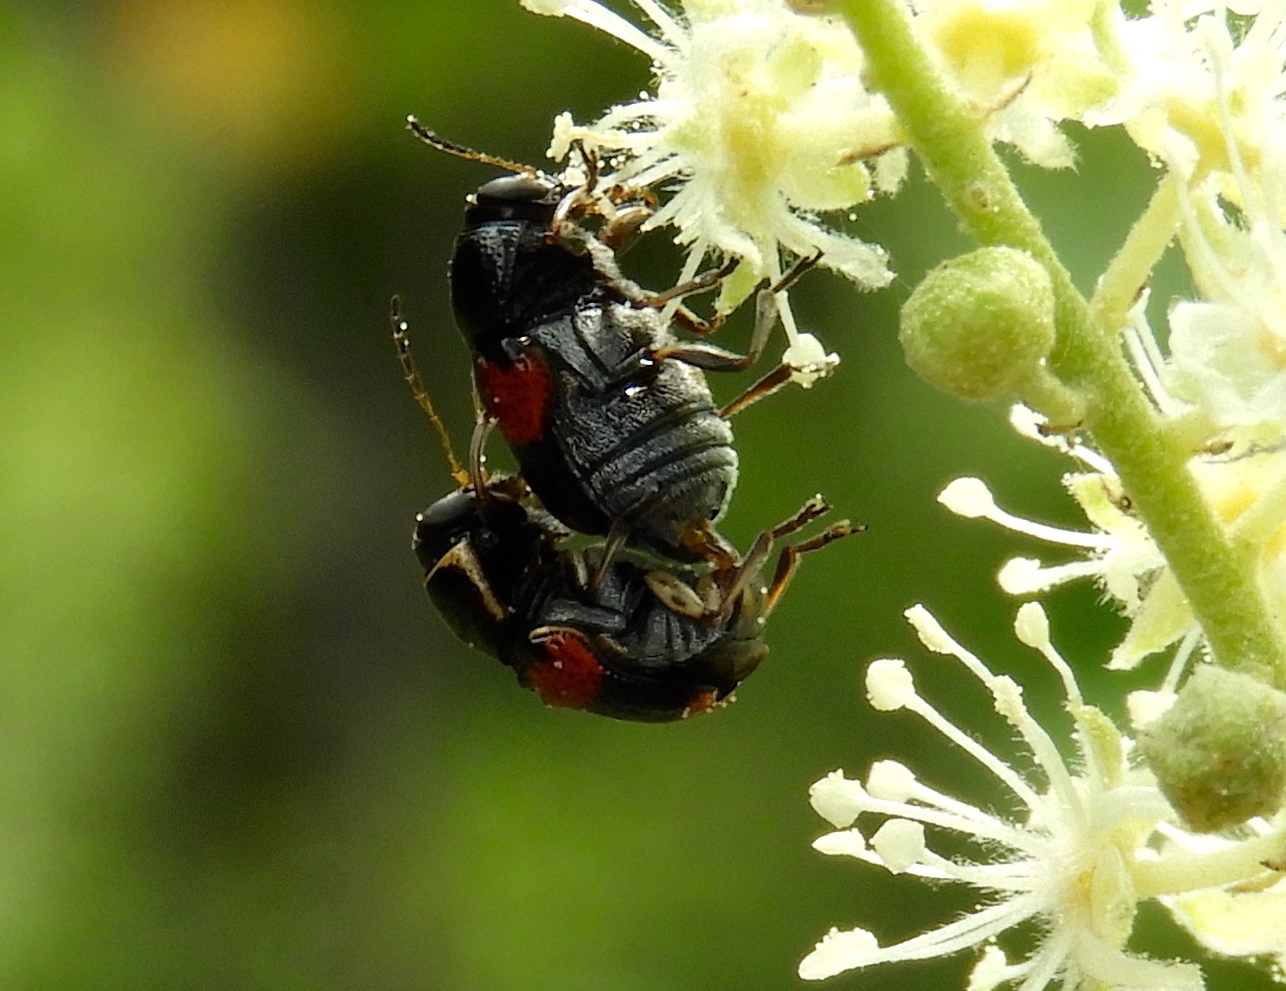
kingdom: Animalia
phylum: Arthropoda
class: Insecta
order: Coleoptera
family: Chrysomelidae
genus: Griburius
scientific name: Griburius albilabris
